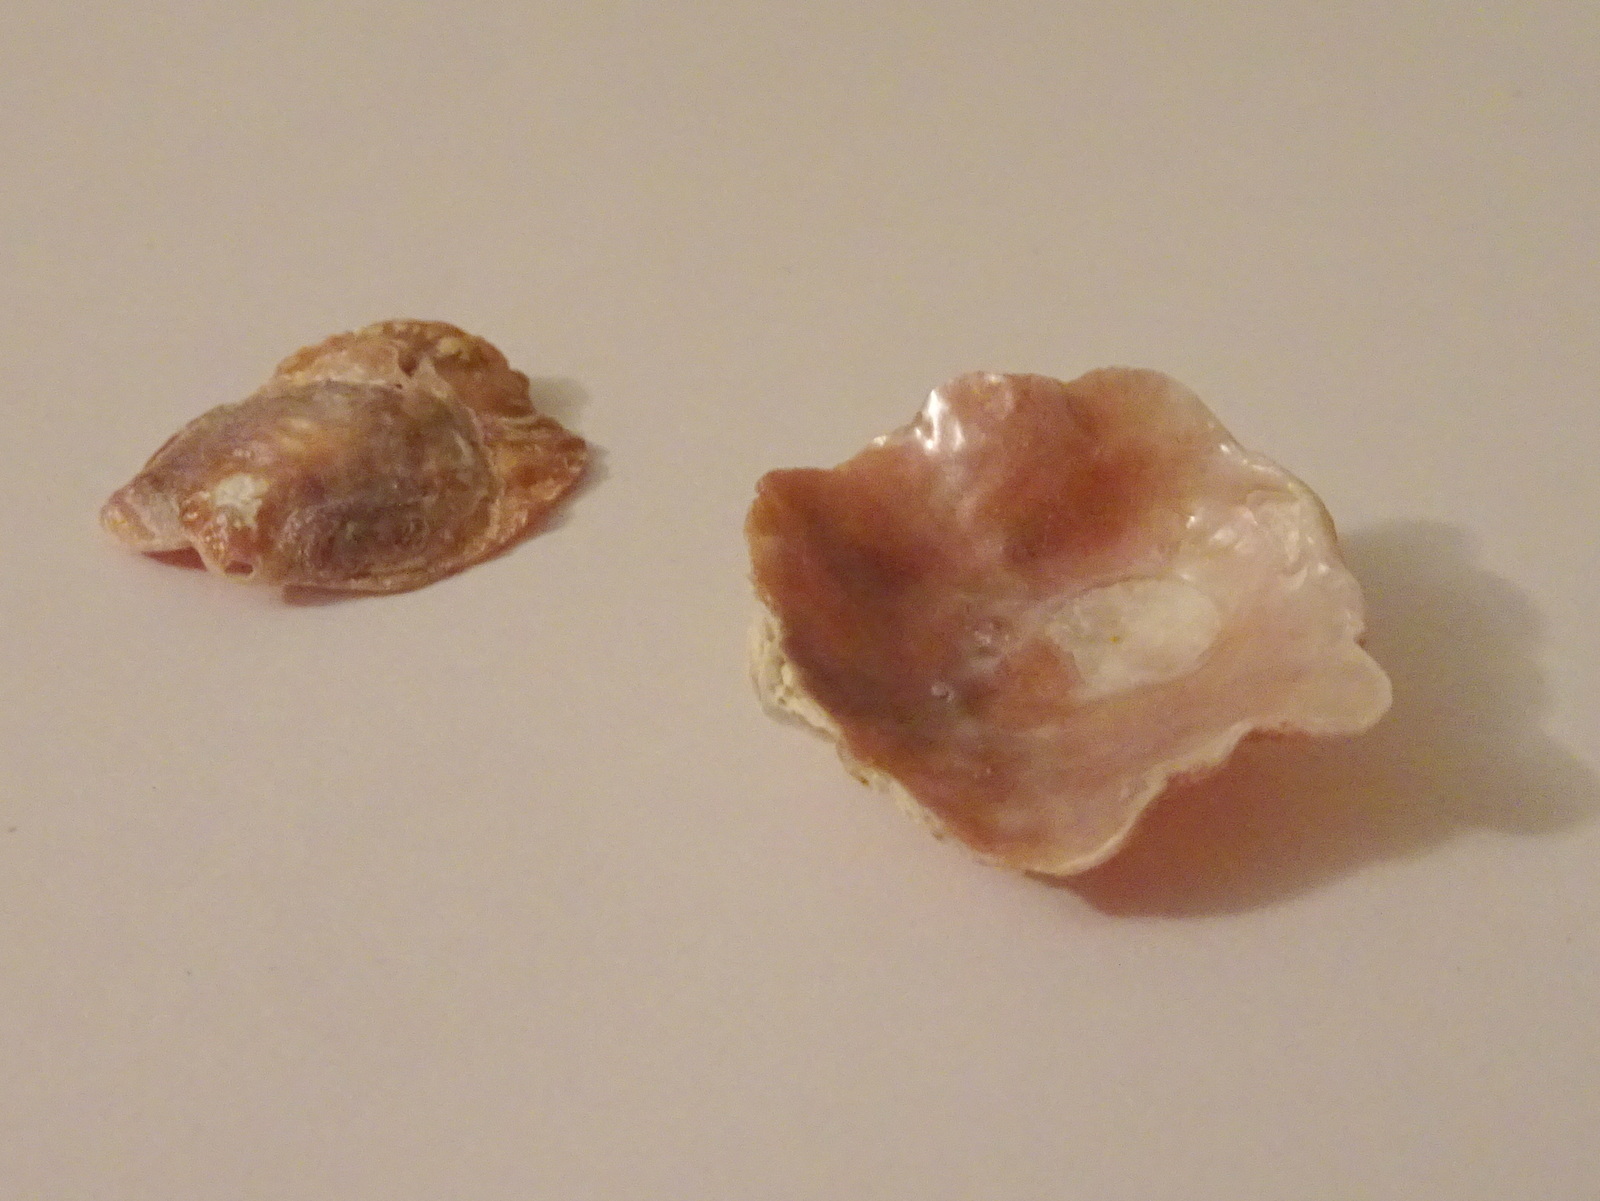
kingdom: Animalia
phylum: Mollusca
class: Bivalvia
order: Pectinida
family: Anomiidae
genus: Anomia
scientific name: Anomia ephippium
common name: Saddle oyster
